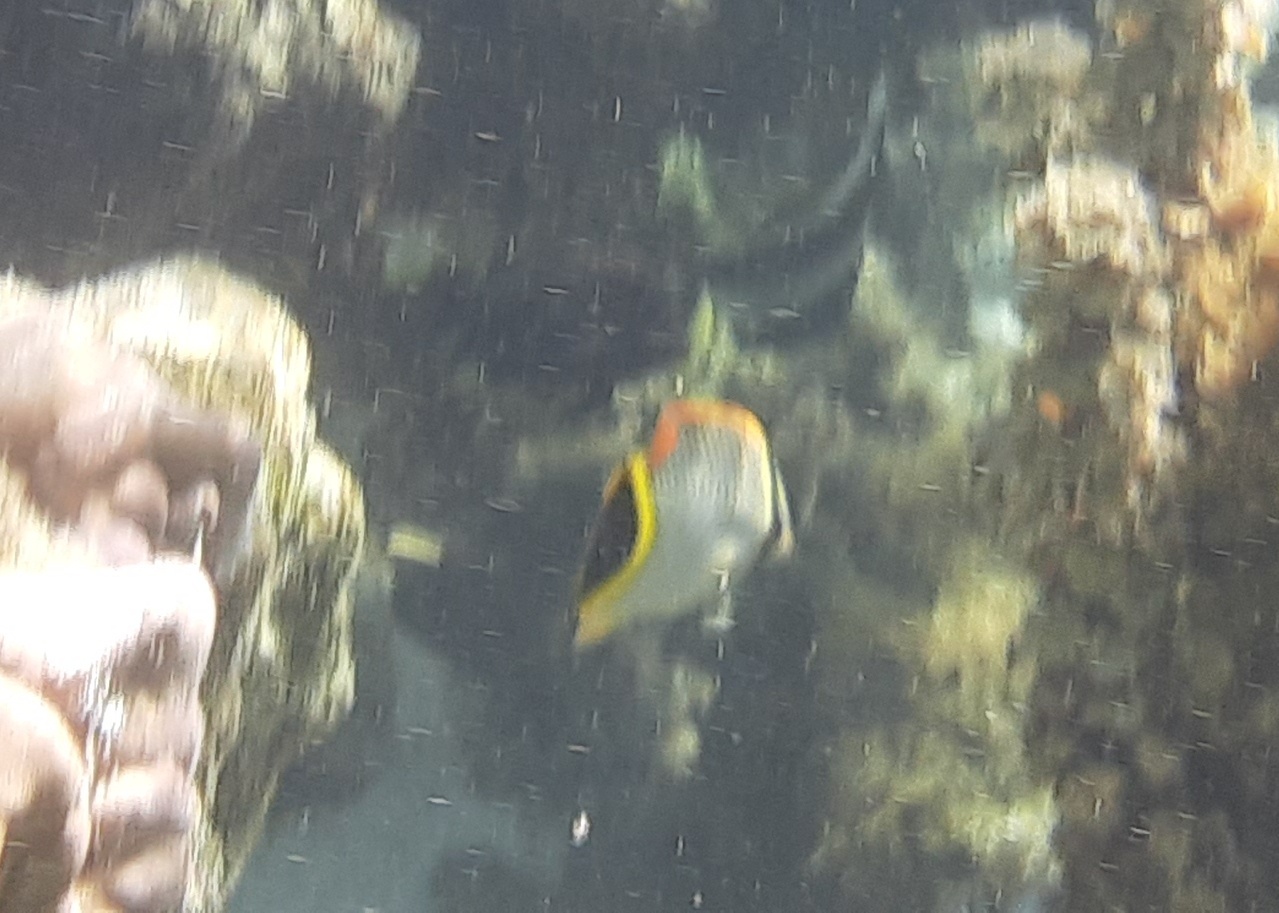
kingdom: Animalia
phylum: Chordata
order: Perciformes
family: Chaetodontidae
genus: Chaetodon
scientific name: Chaetodon trifascialis
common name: Chevroned butterflyfish
